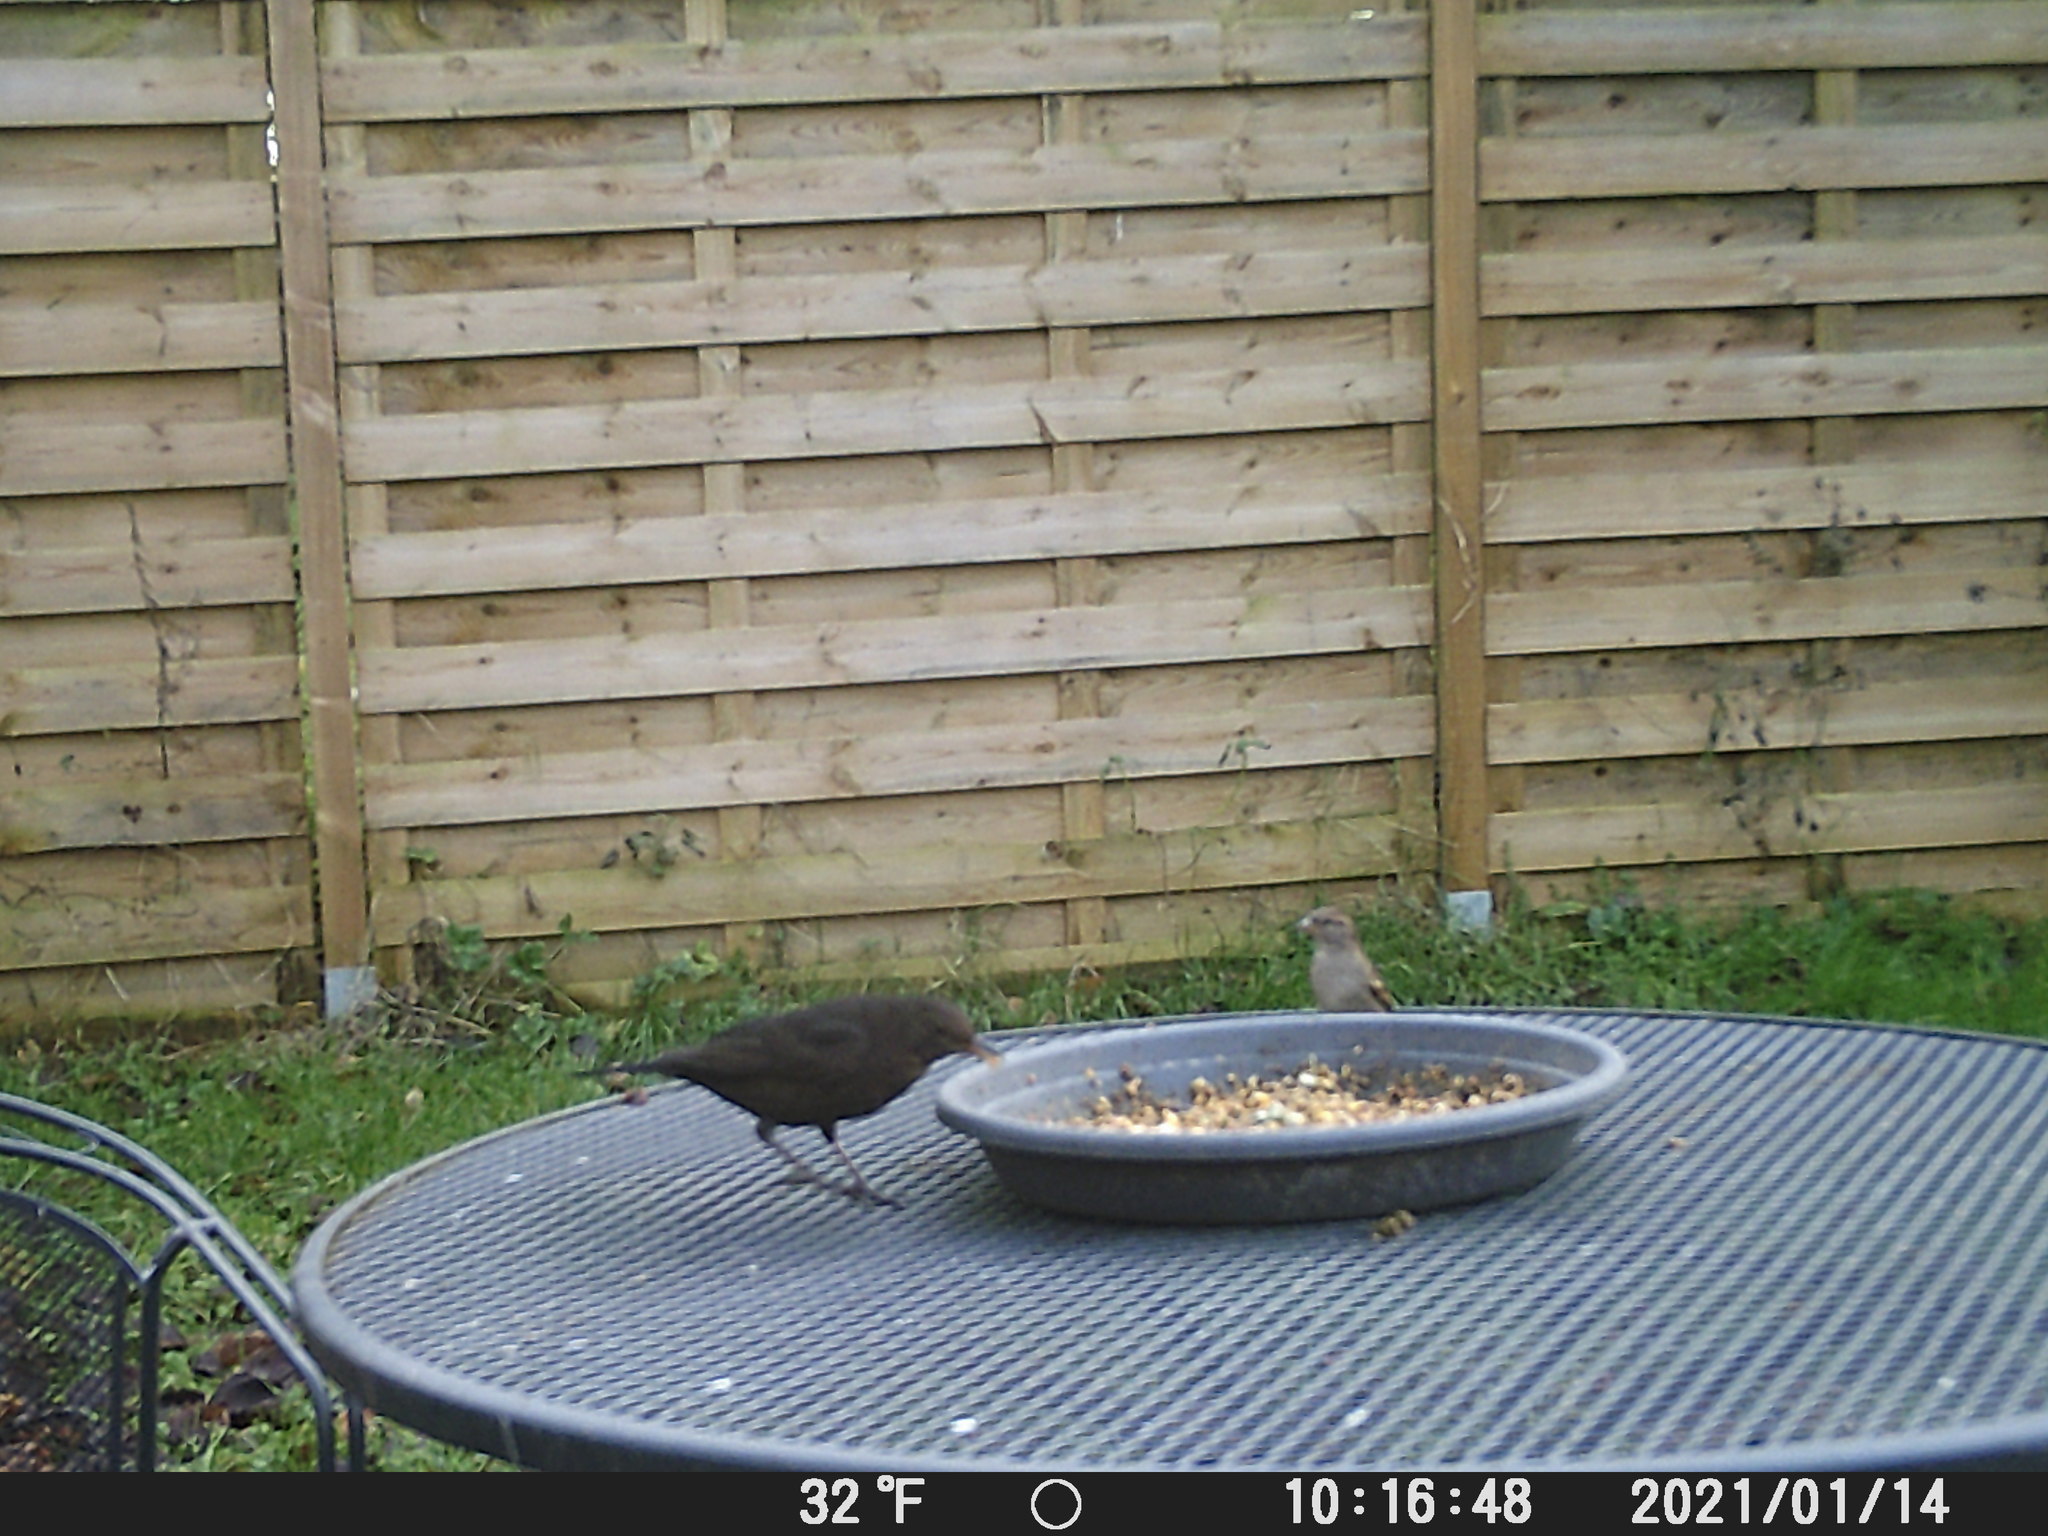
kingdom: Animalia
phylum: Chordata
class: Aves
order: Passeriformes
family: Passeridae
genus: Passer
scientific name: Passer domesticus
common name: House sparrow
